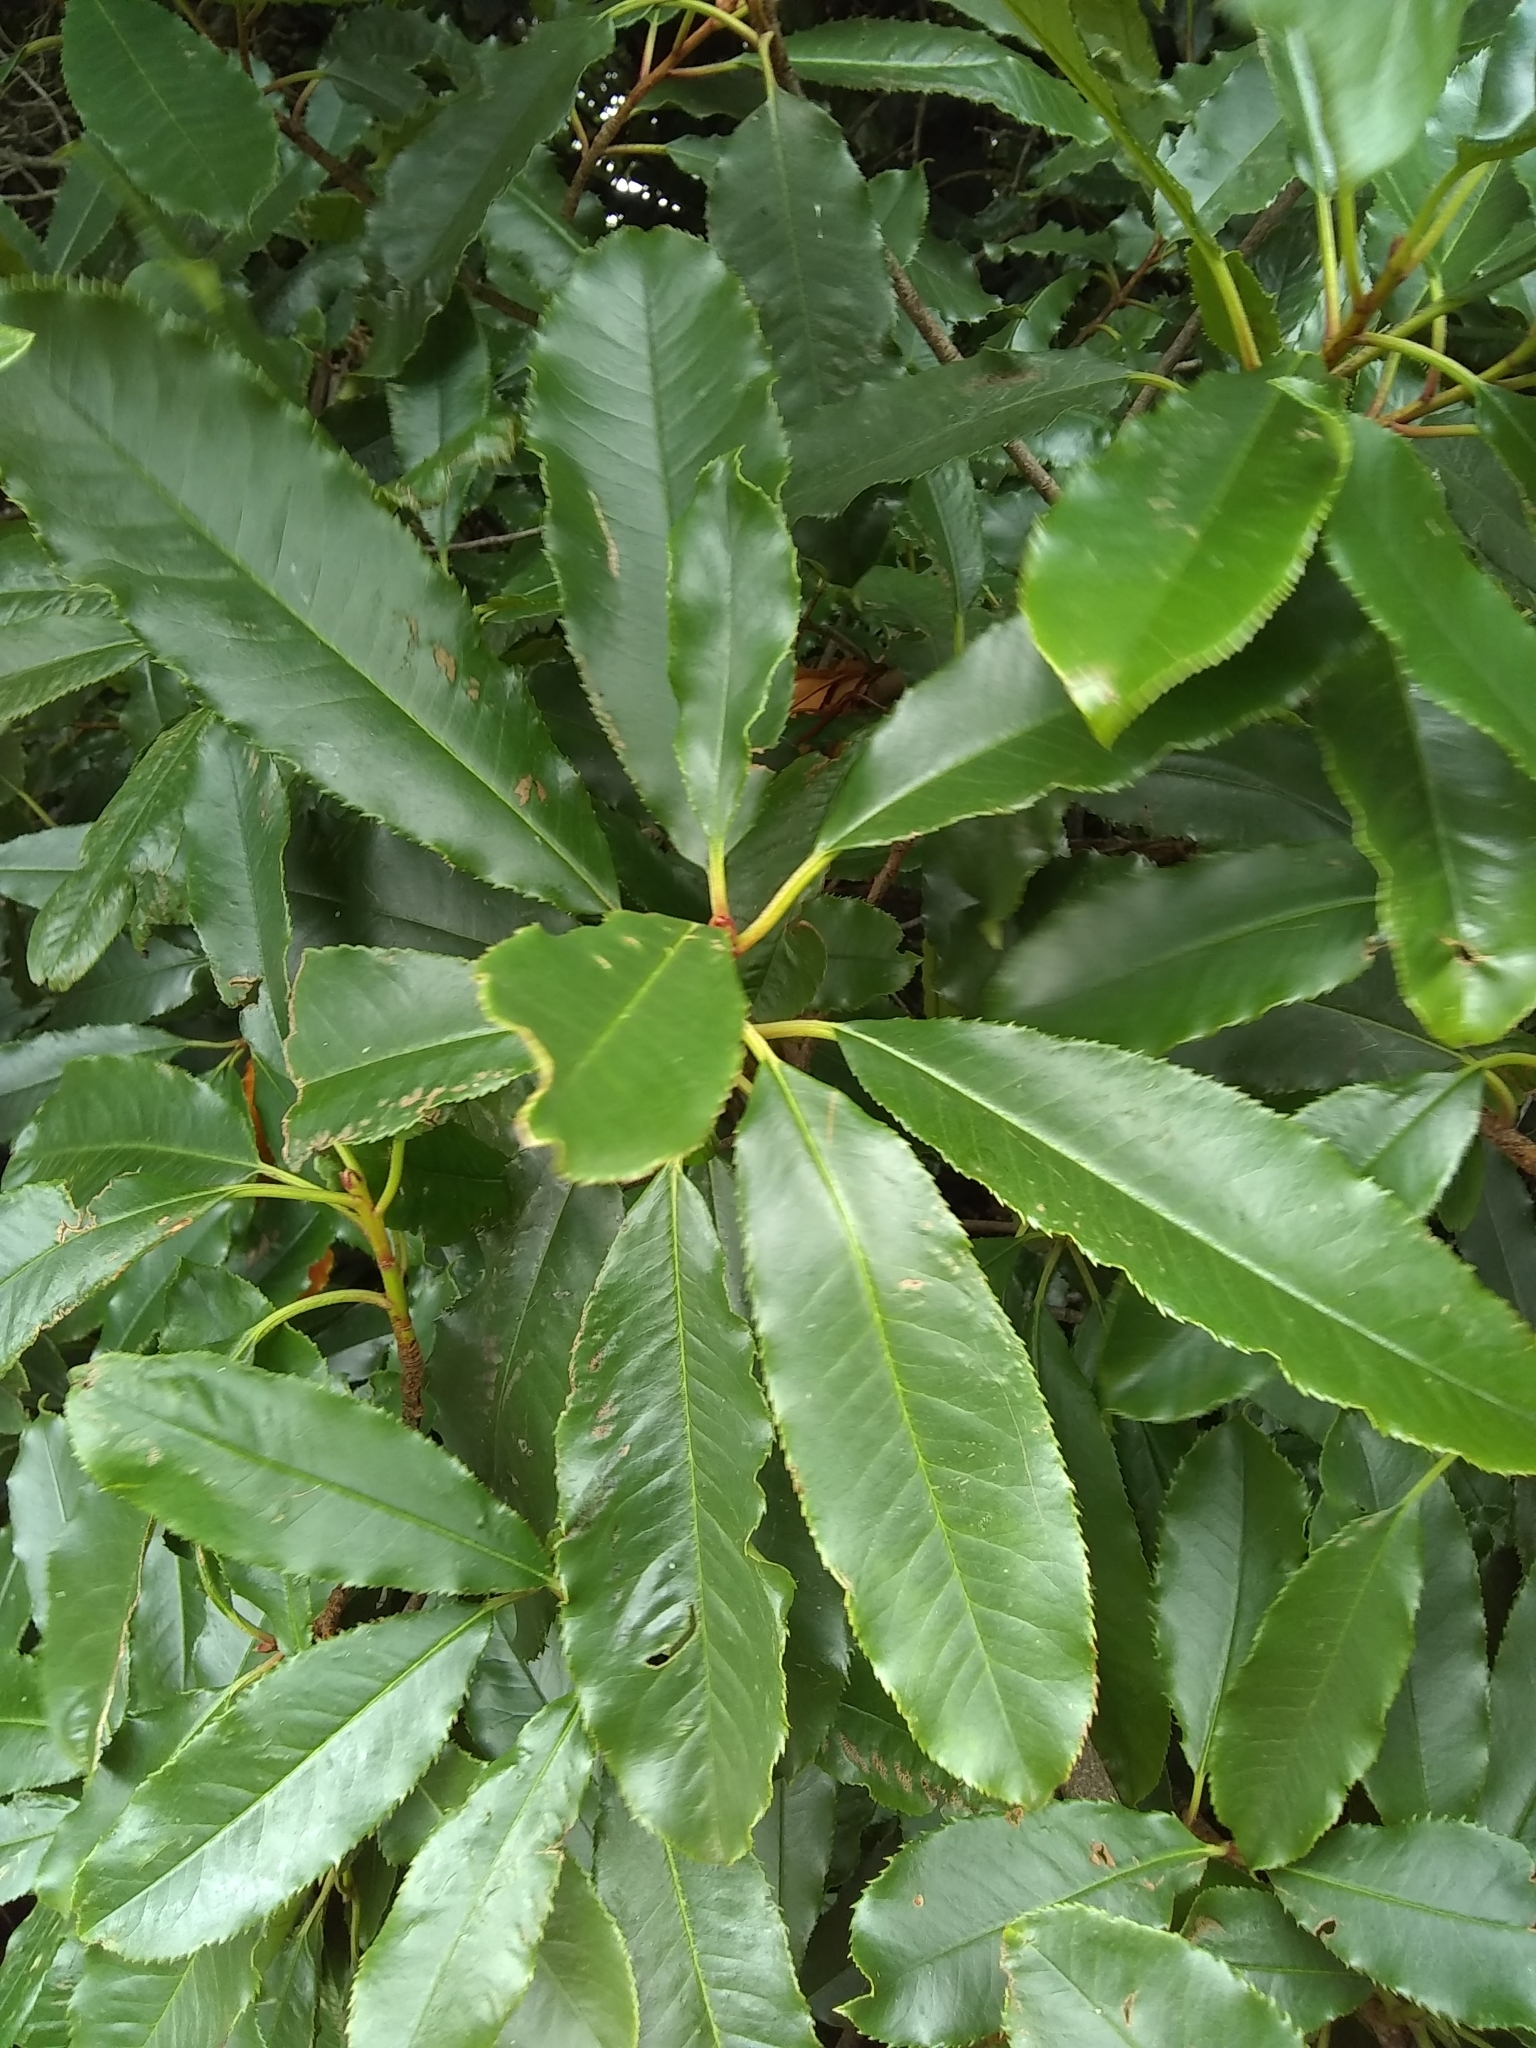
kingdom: Plantae
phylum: Tracheophyta
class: Magnoliopsida
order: Rosales
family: Rosaceae
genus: Photinia
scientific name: Photinia serratifolia
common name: Taiwanese photinia
